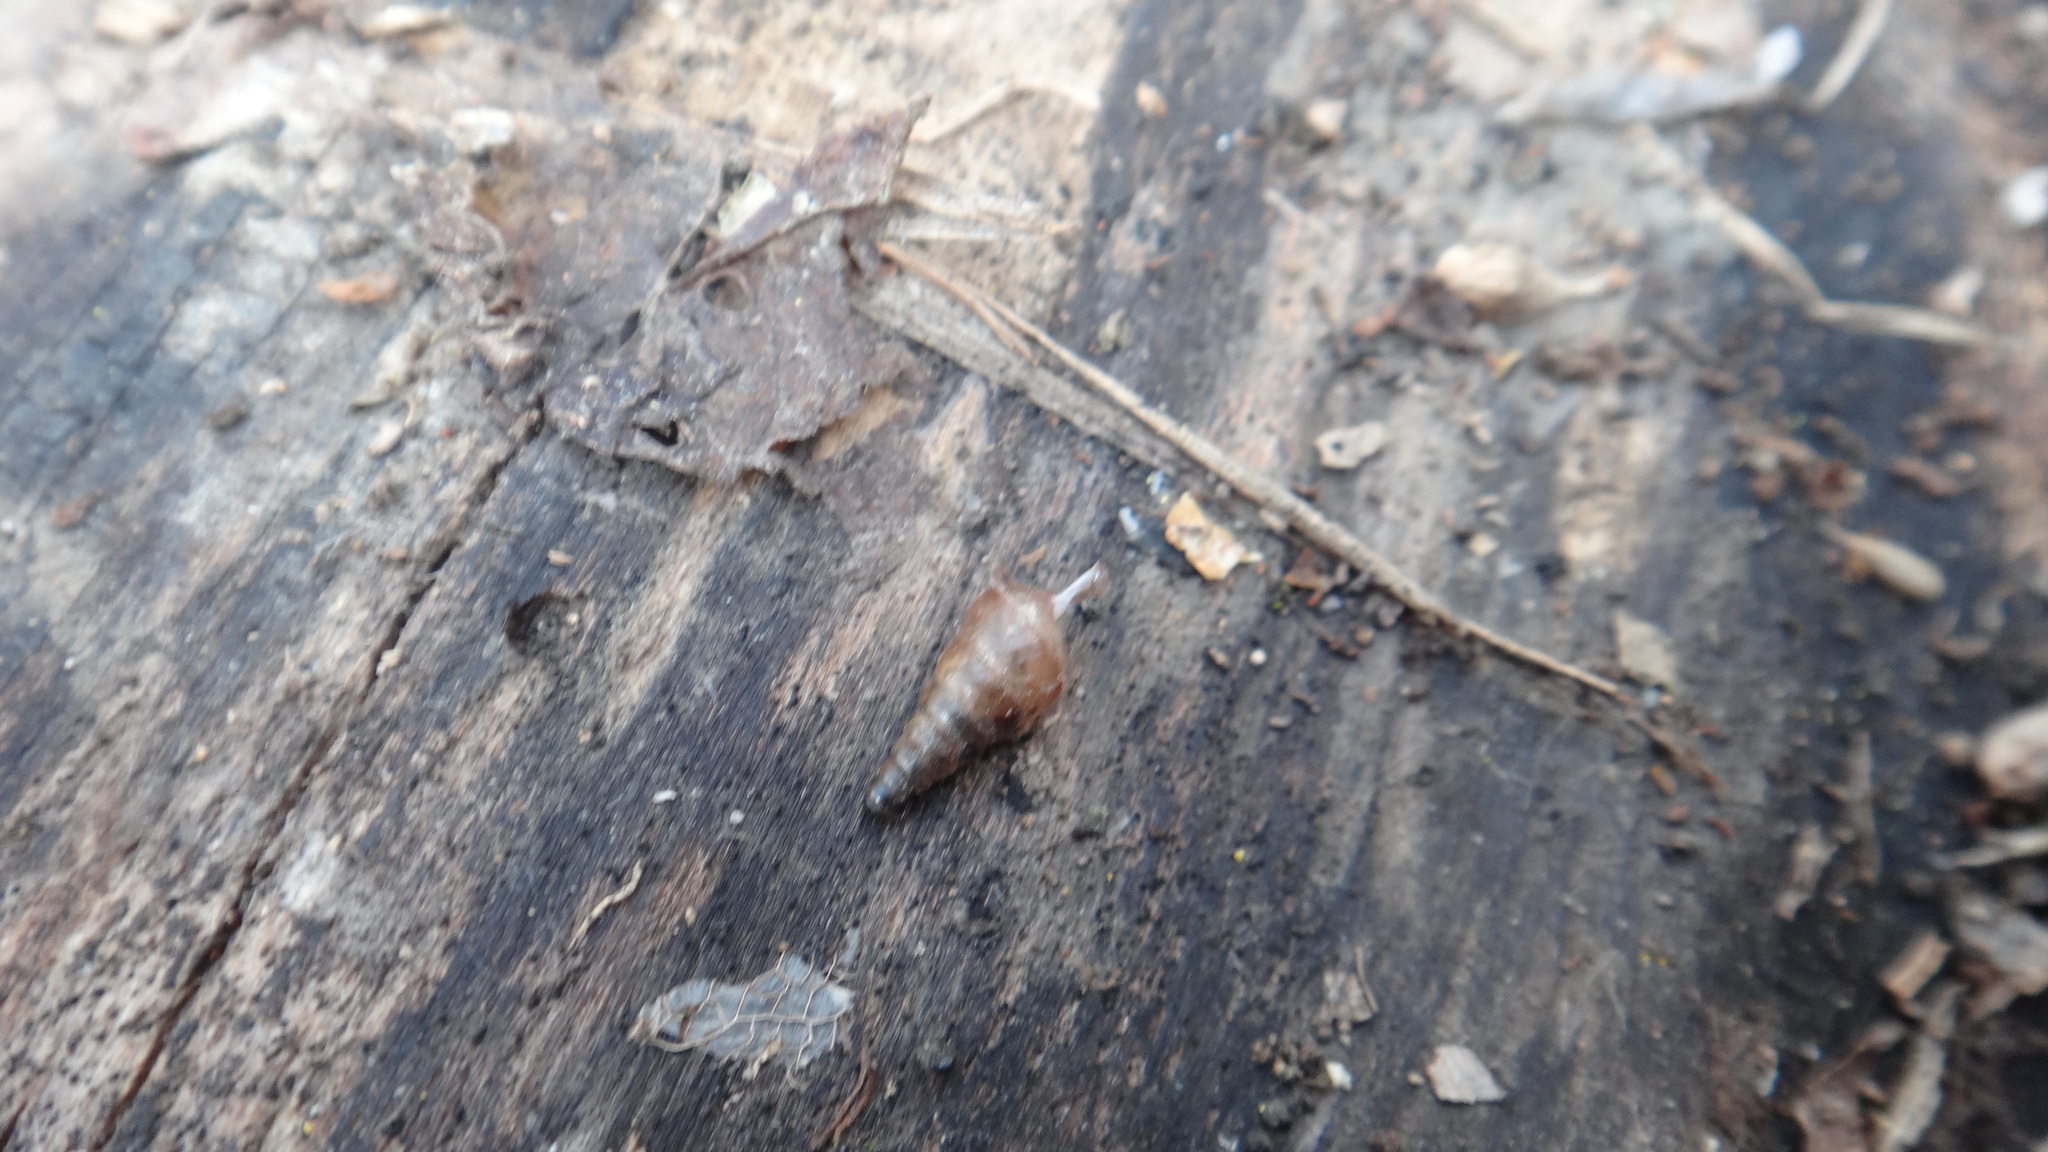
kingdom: Animalia
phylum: Mollusca
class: Gastropoda
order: Stylommatophora
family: Clausiliidae
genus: Cochlodina
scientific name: Cochlodina laminata
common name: Plaited door snail
